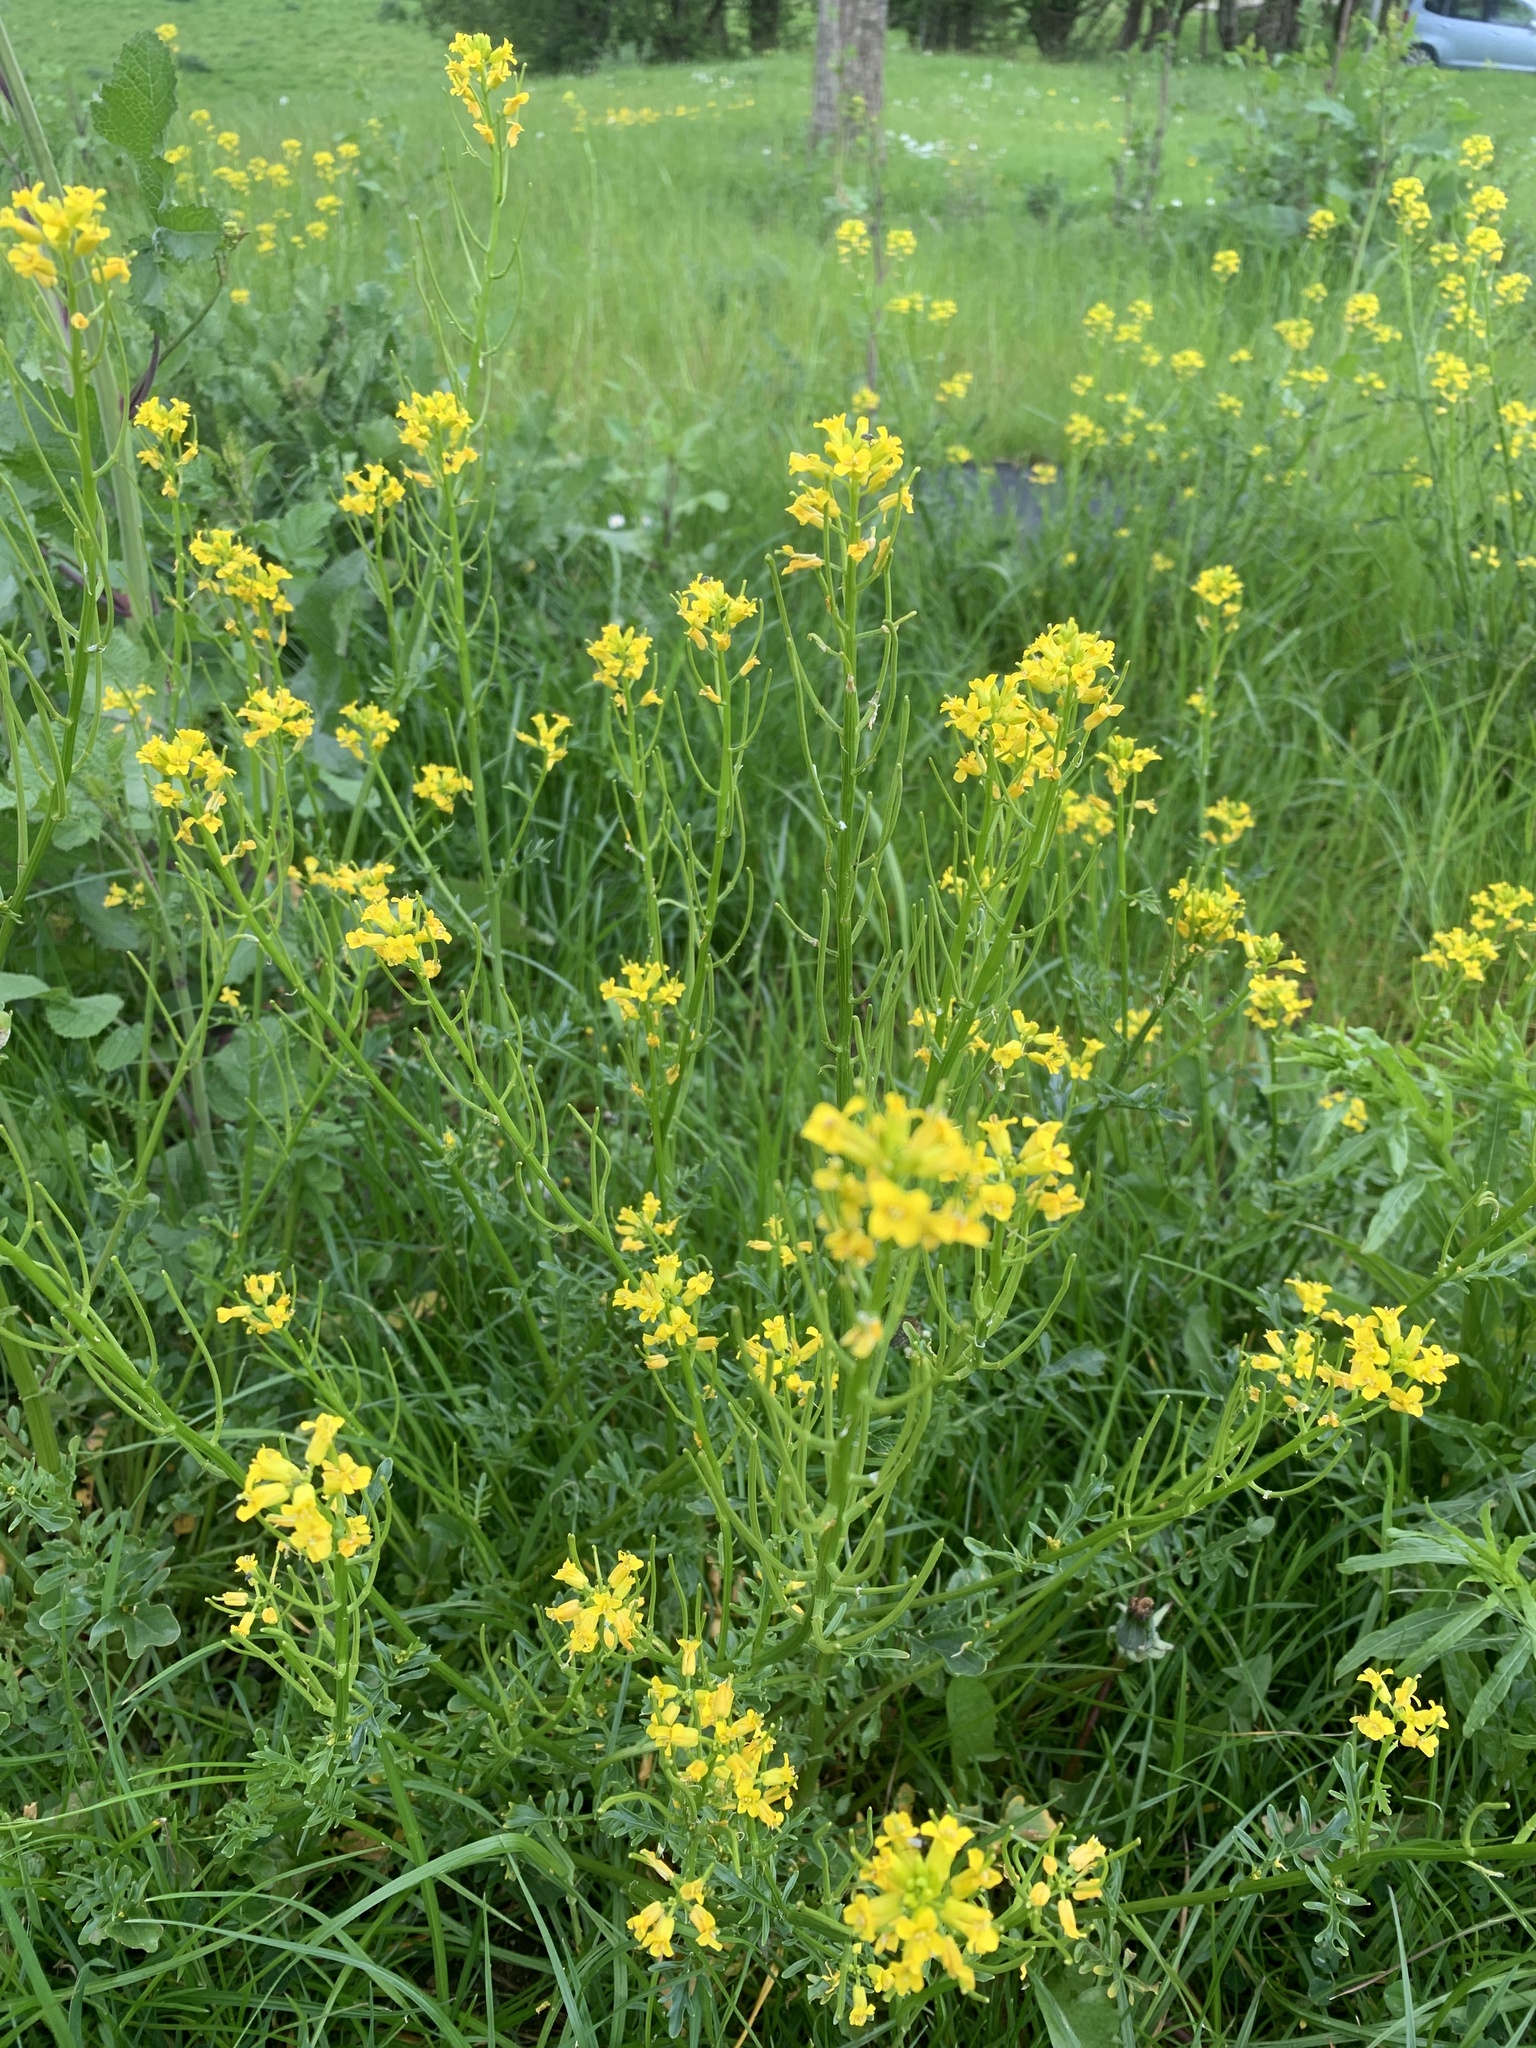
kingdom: Plantae
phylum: Tracheophyta
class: Magnoliopsida
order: Brassicales
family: Brassicaceae
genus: Brassica
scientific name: Brassica napus
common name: Rape
